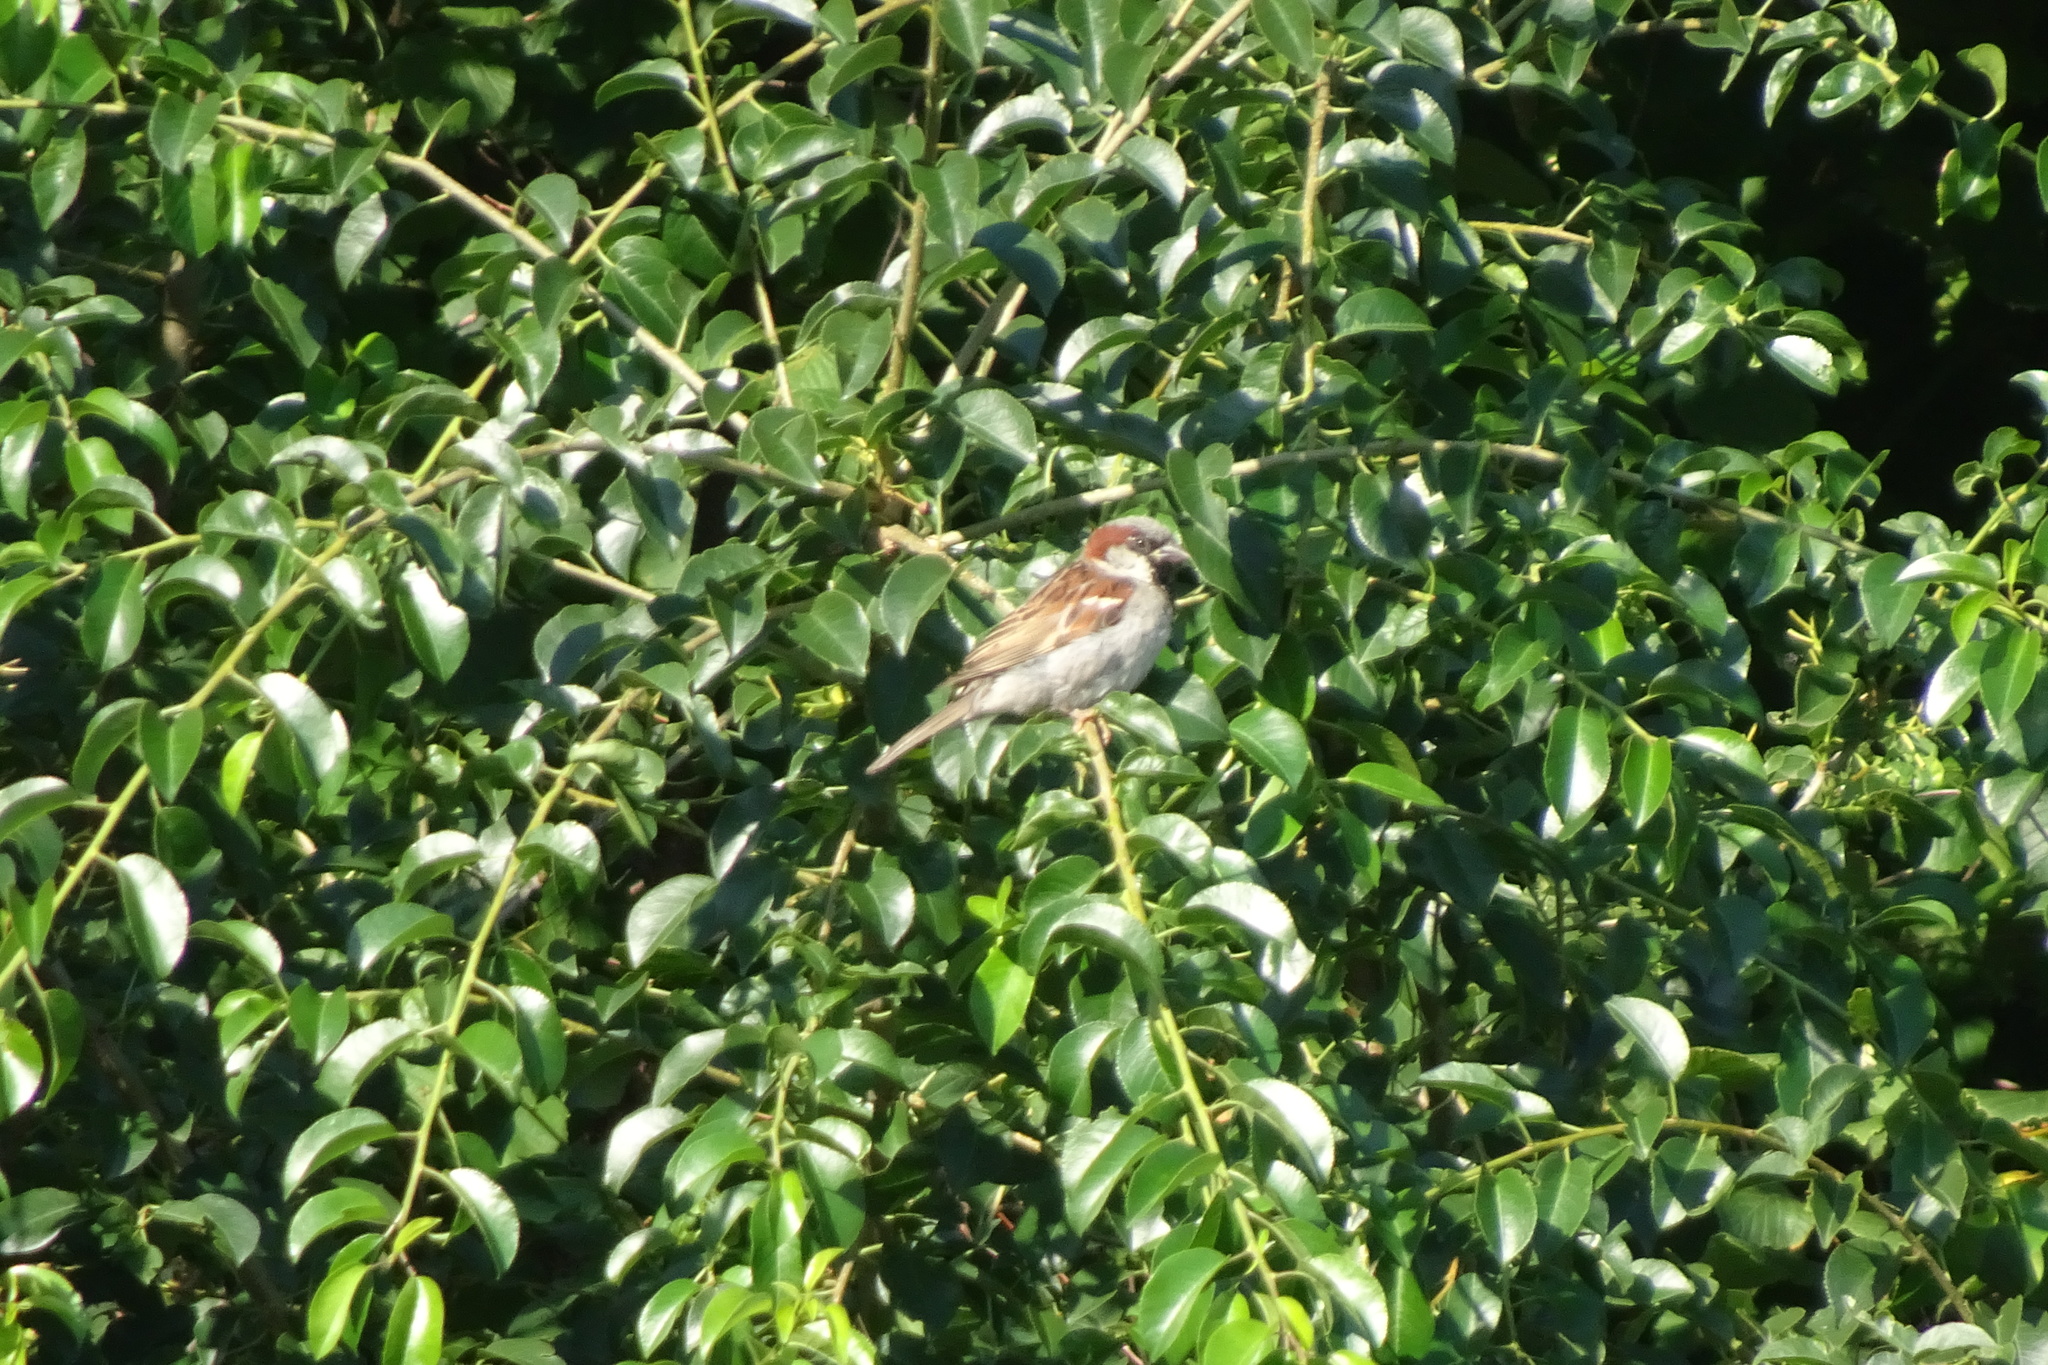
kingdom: Animalia
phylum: Chordata
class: Aves
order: Passeriformes
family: Passeridae
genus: Passer
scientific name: Passer domesticus
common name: House sparrow
